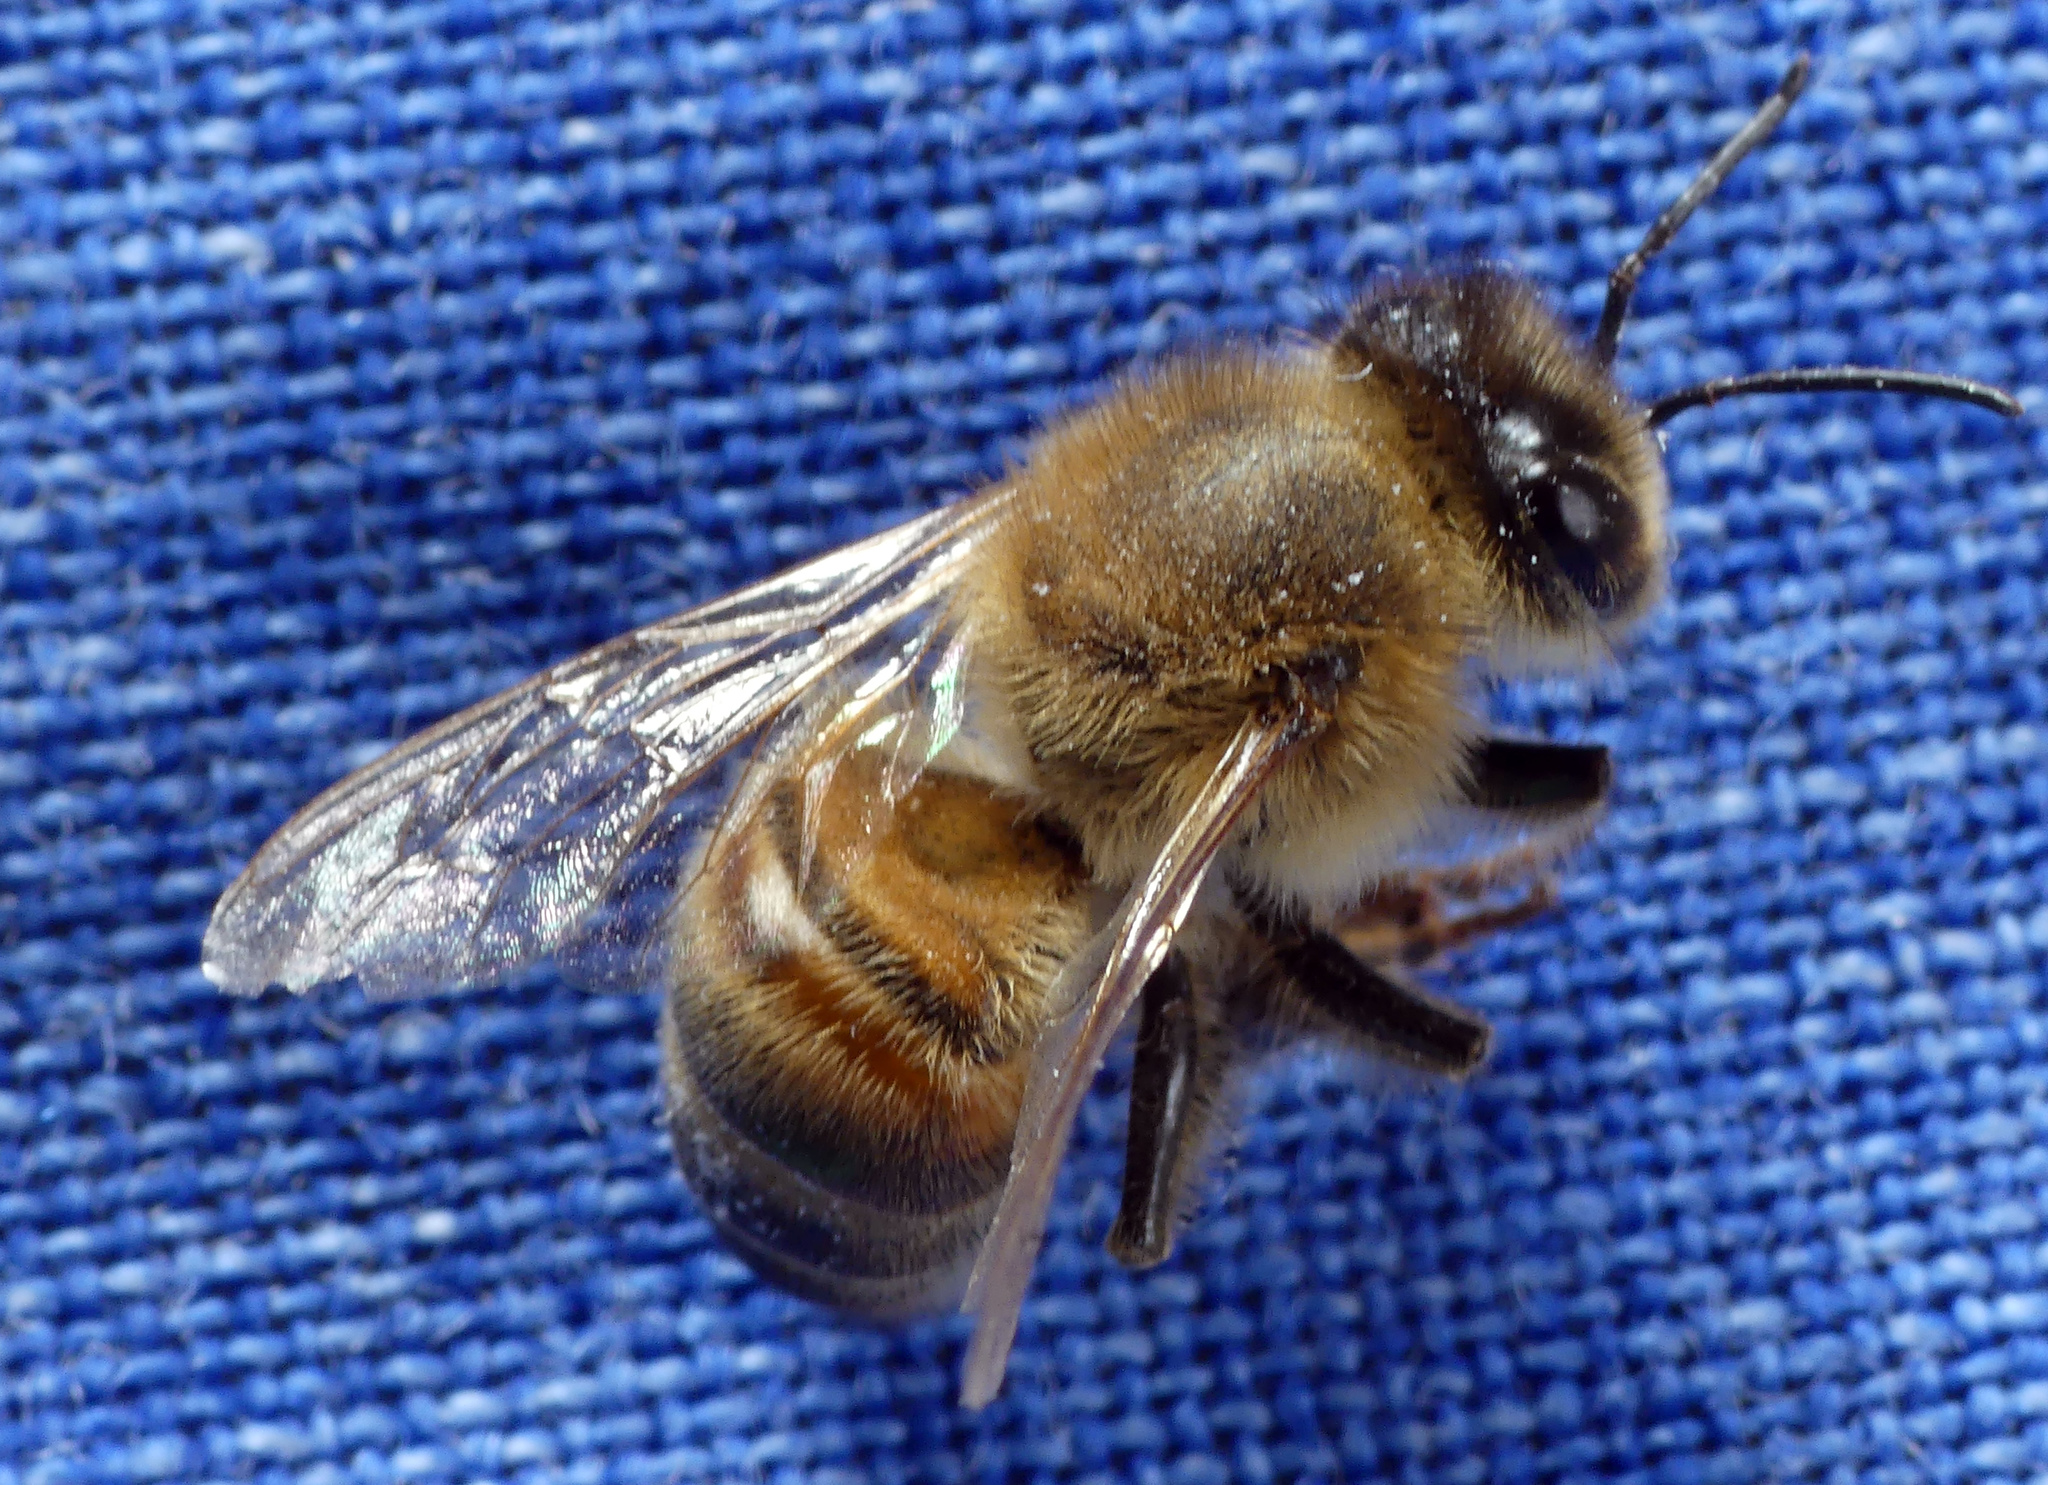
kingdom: Animalia
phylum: Arthropoda
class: Insecta
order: Hymenoptera
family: Apidae
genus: Apis
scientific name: Apis mellifera
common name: Honey bee
